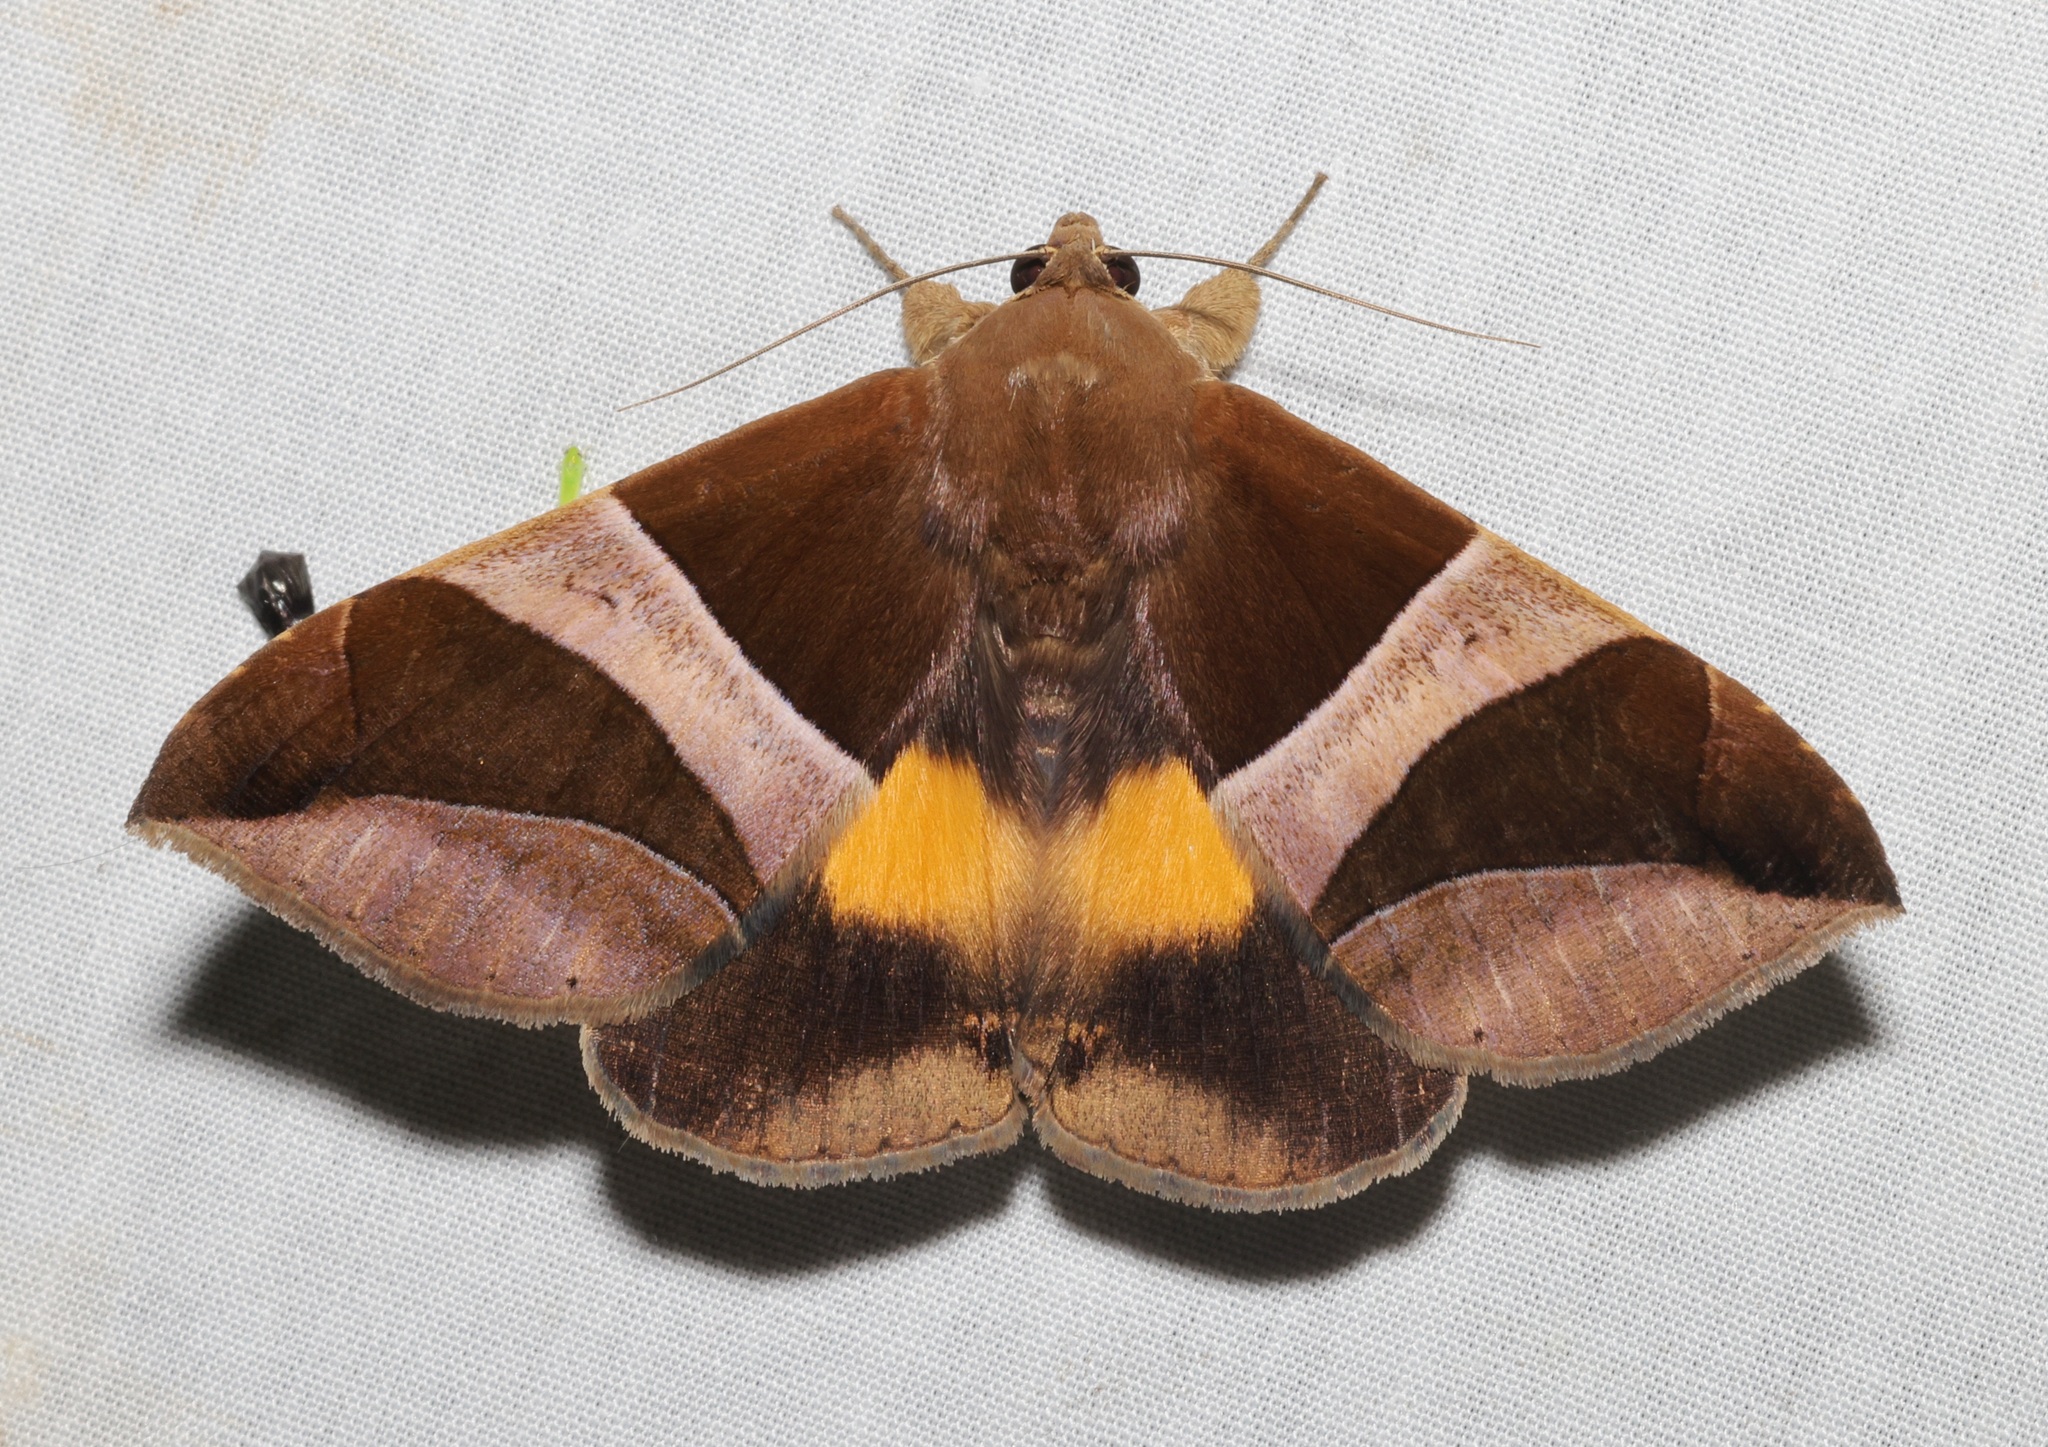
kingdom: Animalia
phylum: Arthropoda
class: Insecta
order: Lepidoptera
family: Erebidae
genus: Bastilla
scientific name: Bastilla fulvotaenia
